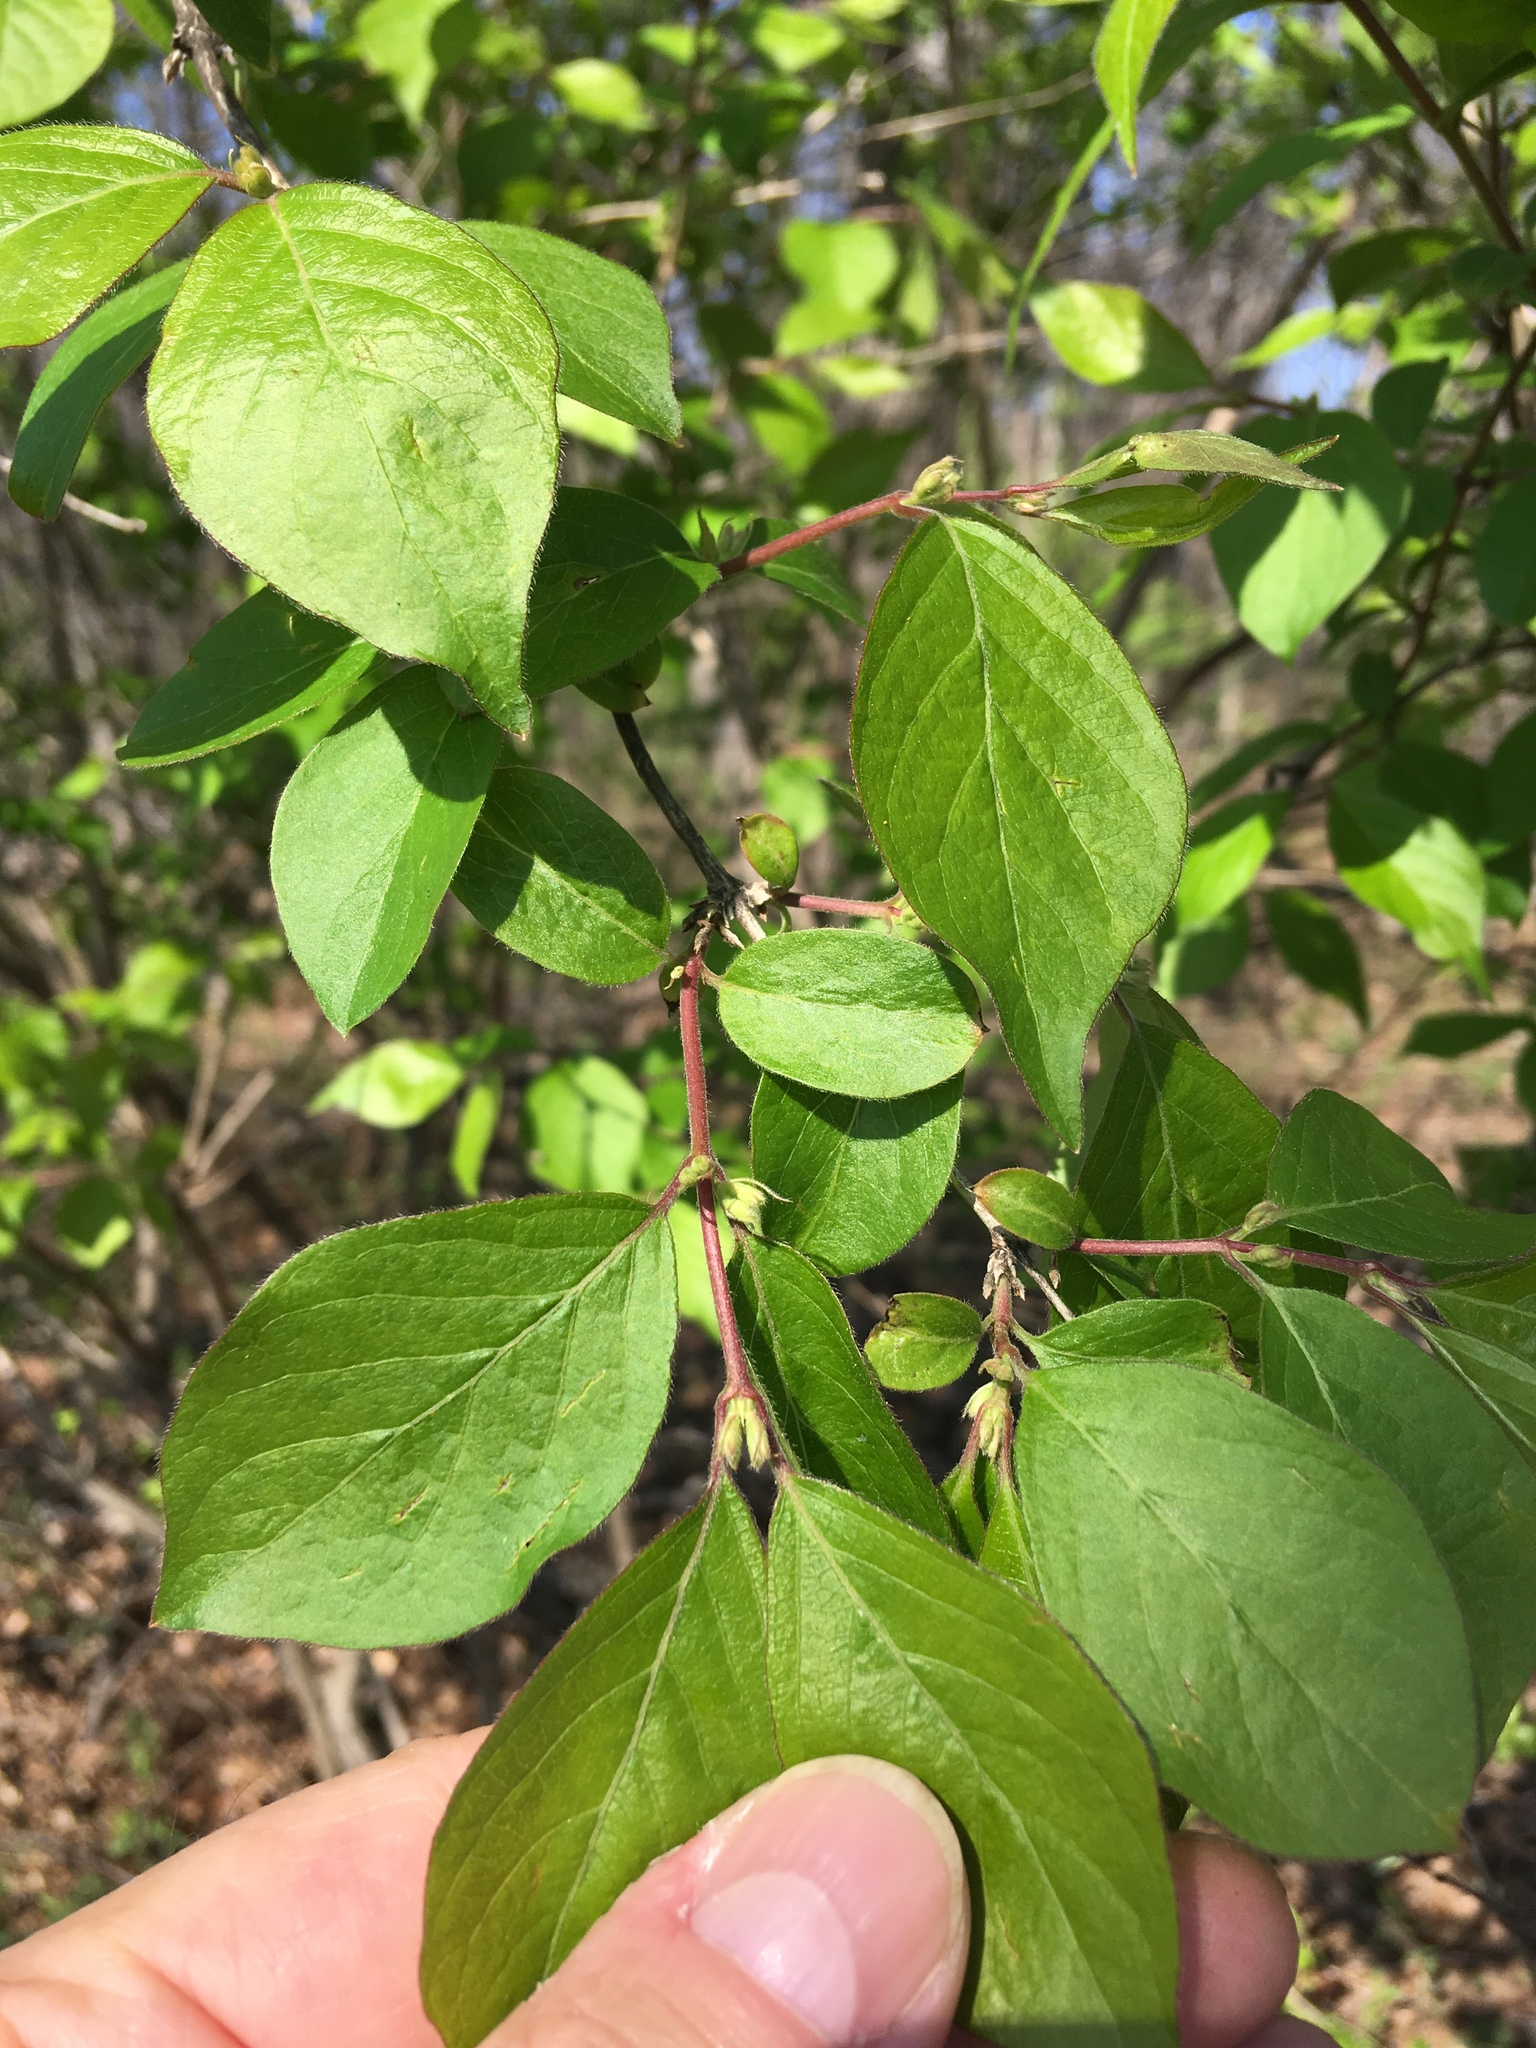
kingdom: Plantae
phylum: Tracheophyta
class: Magnoliopsida
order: Dipsacales
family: Caprifoliaceae
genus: Lonicera
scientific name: Lonicera maackii
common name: Amur honeysuckle
